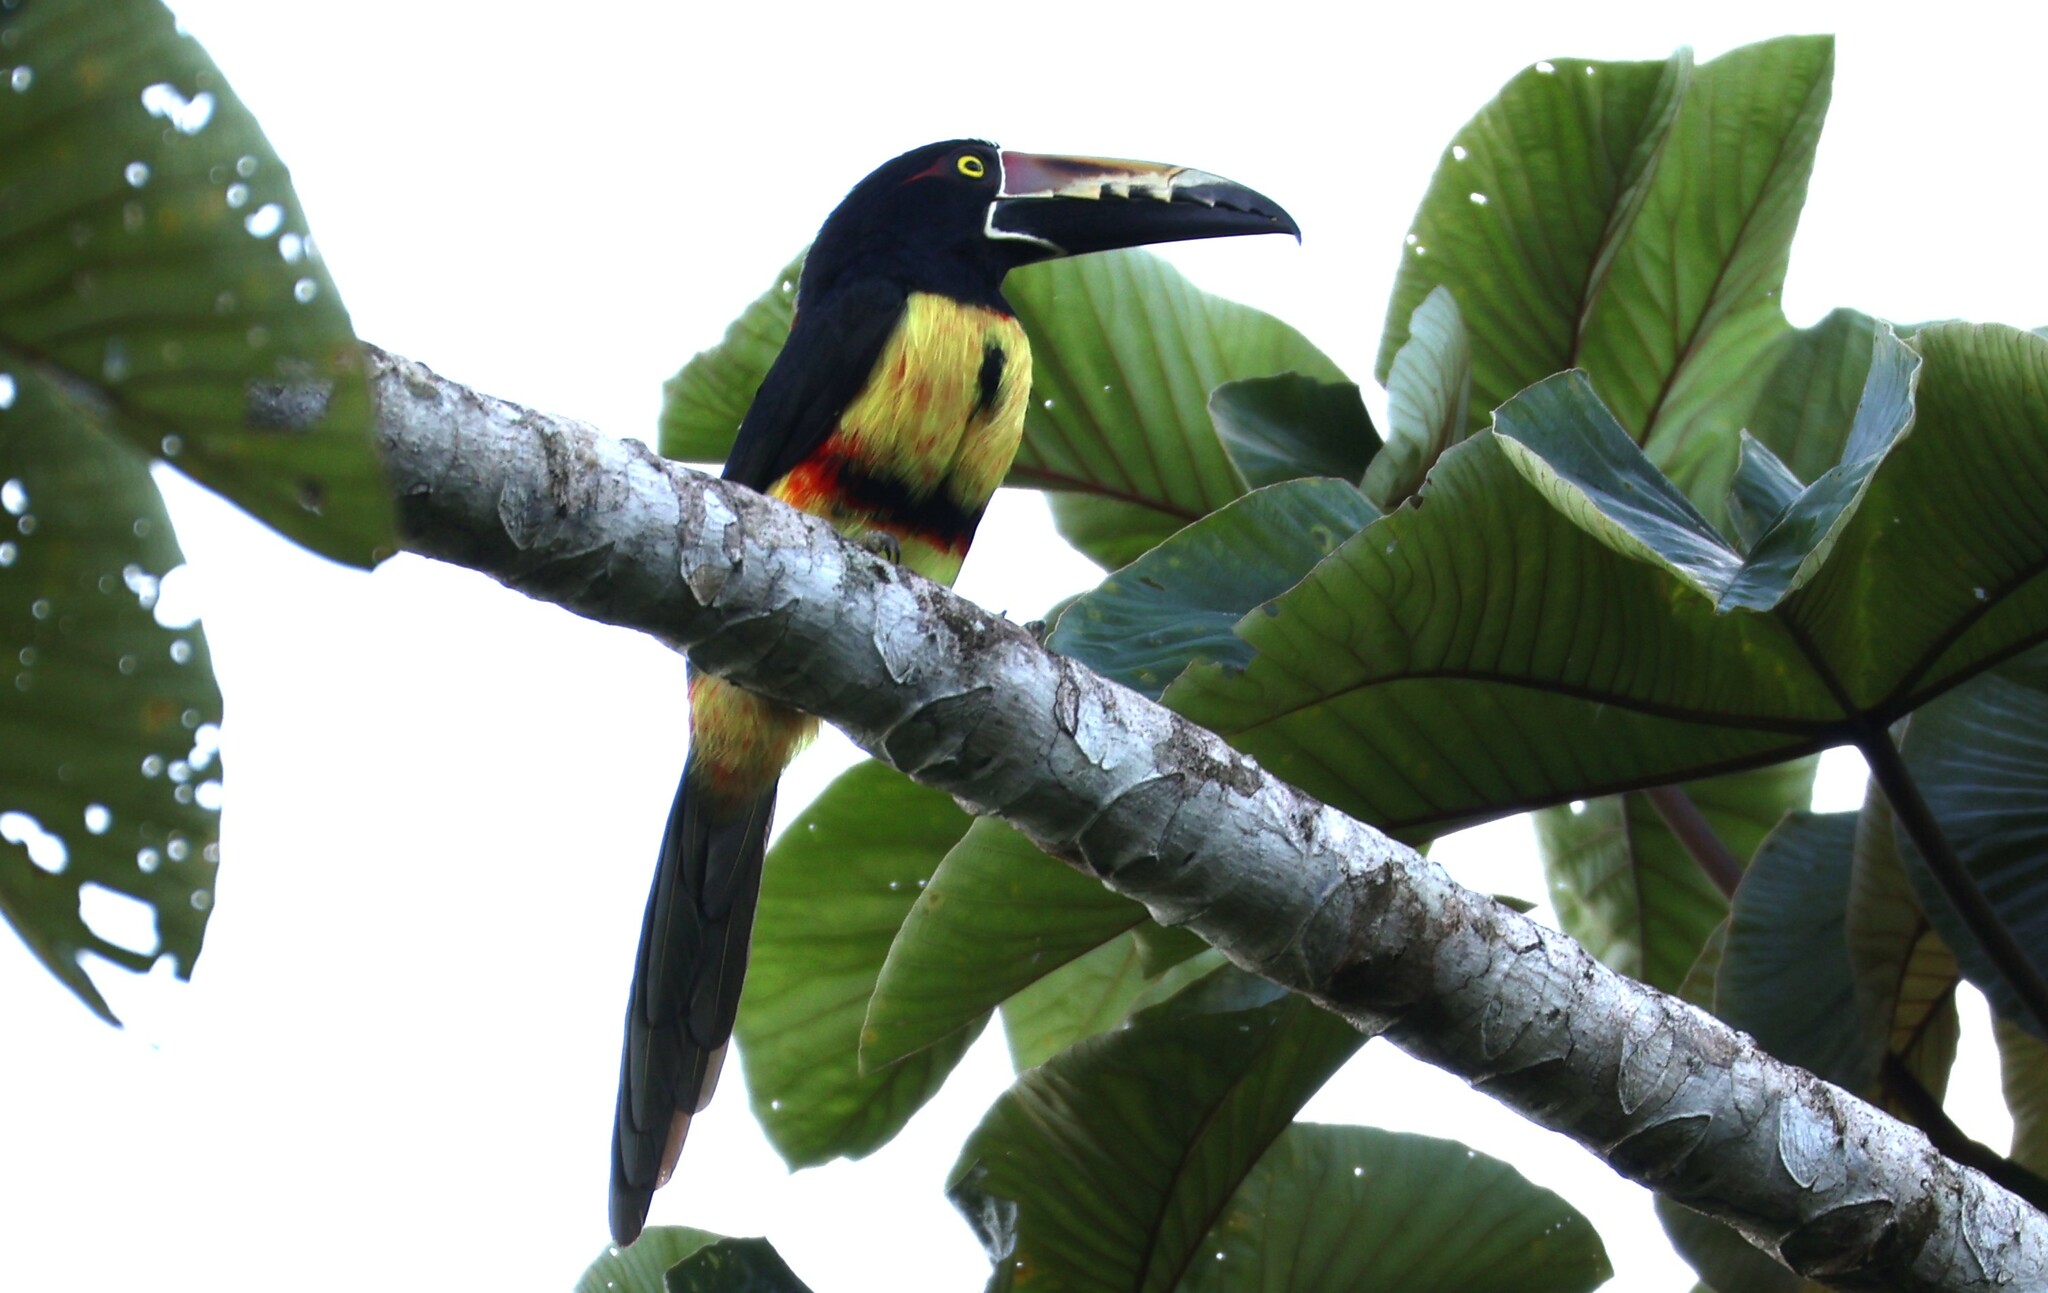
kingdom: Animalia
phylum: Chordata
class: Aves
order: Piciformes
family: Ramphastidae
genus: Pteroglossus
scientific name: Pteroglossus torquatus
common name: Collared aracari
